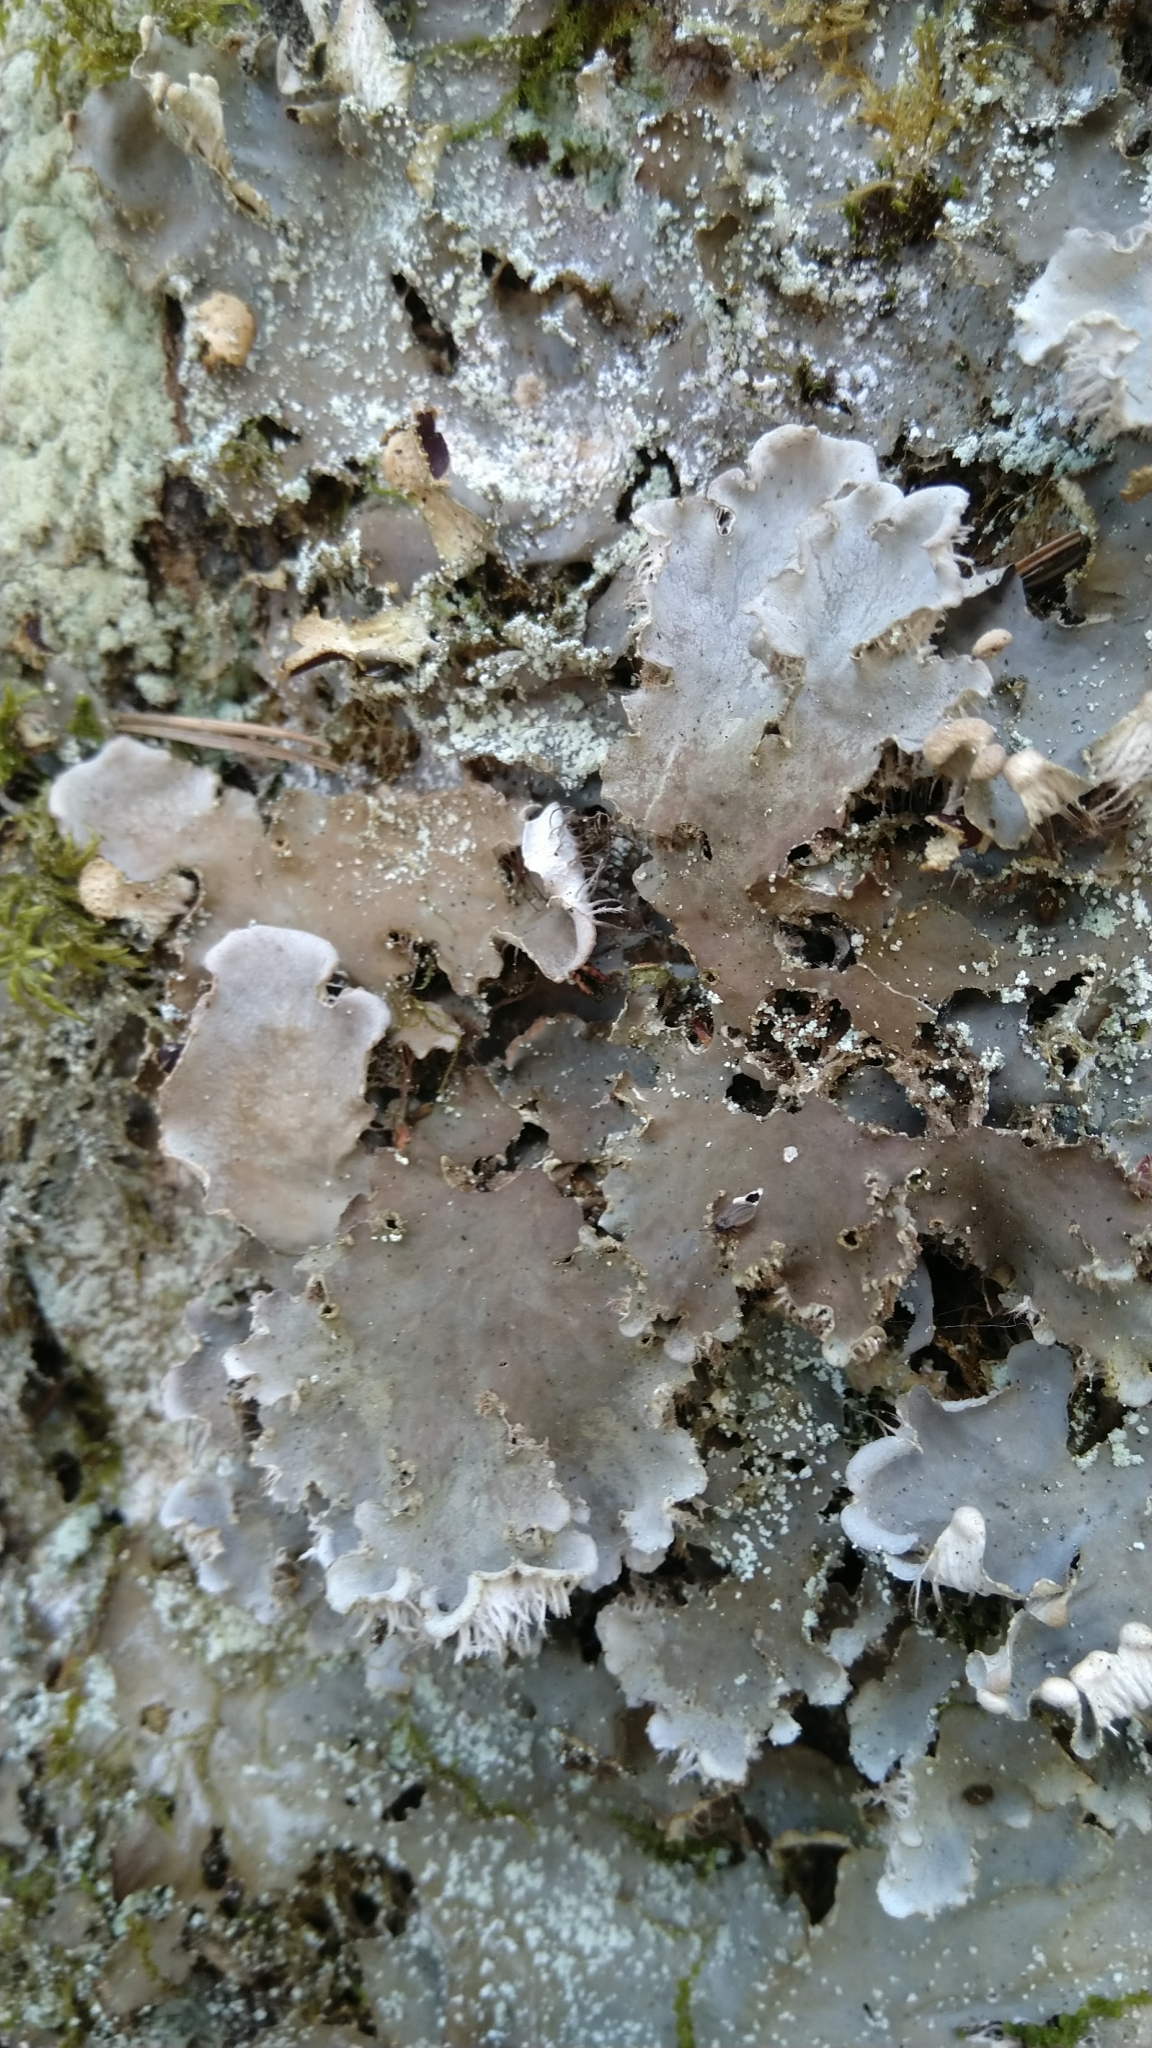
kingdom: Fungi
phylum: Ascomycota
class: Lecanoromycetes
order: Peltigerales
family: Peltigeraceae
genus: Peltigera
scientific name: Peltigera praetextata
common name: Scaly dog-lichen
